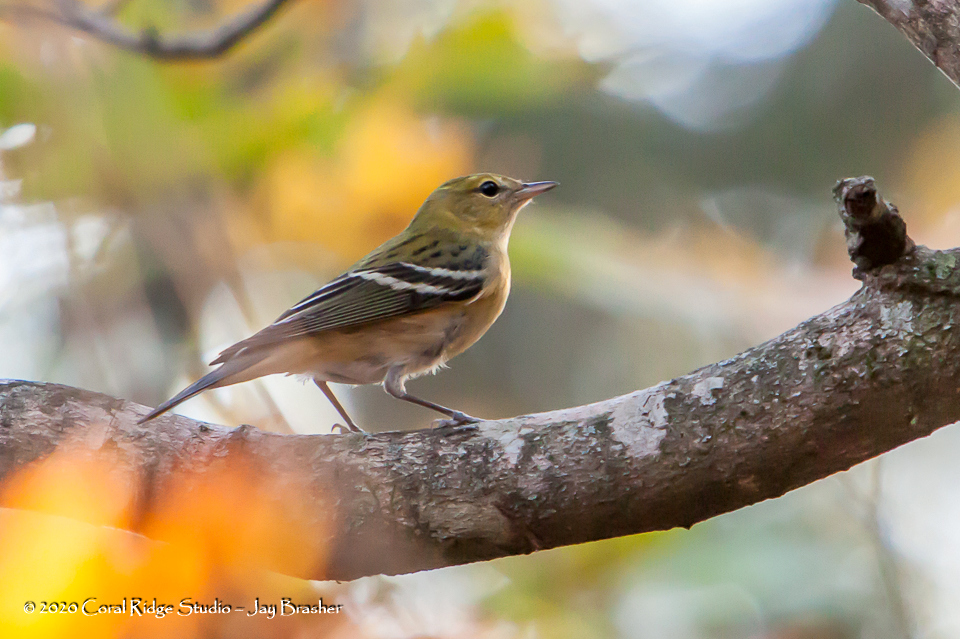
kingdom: Animalia
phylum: Chordata
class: Aves
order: Passeriformes
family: Parulidae
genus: Setophaga
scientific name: Setophaga castanea
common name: Bay-breasted warbler
